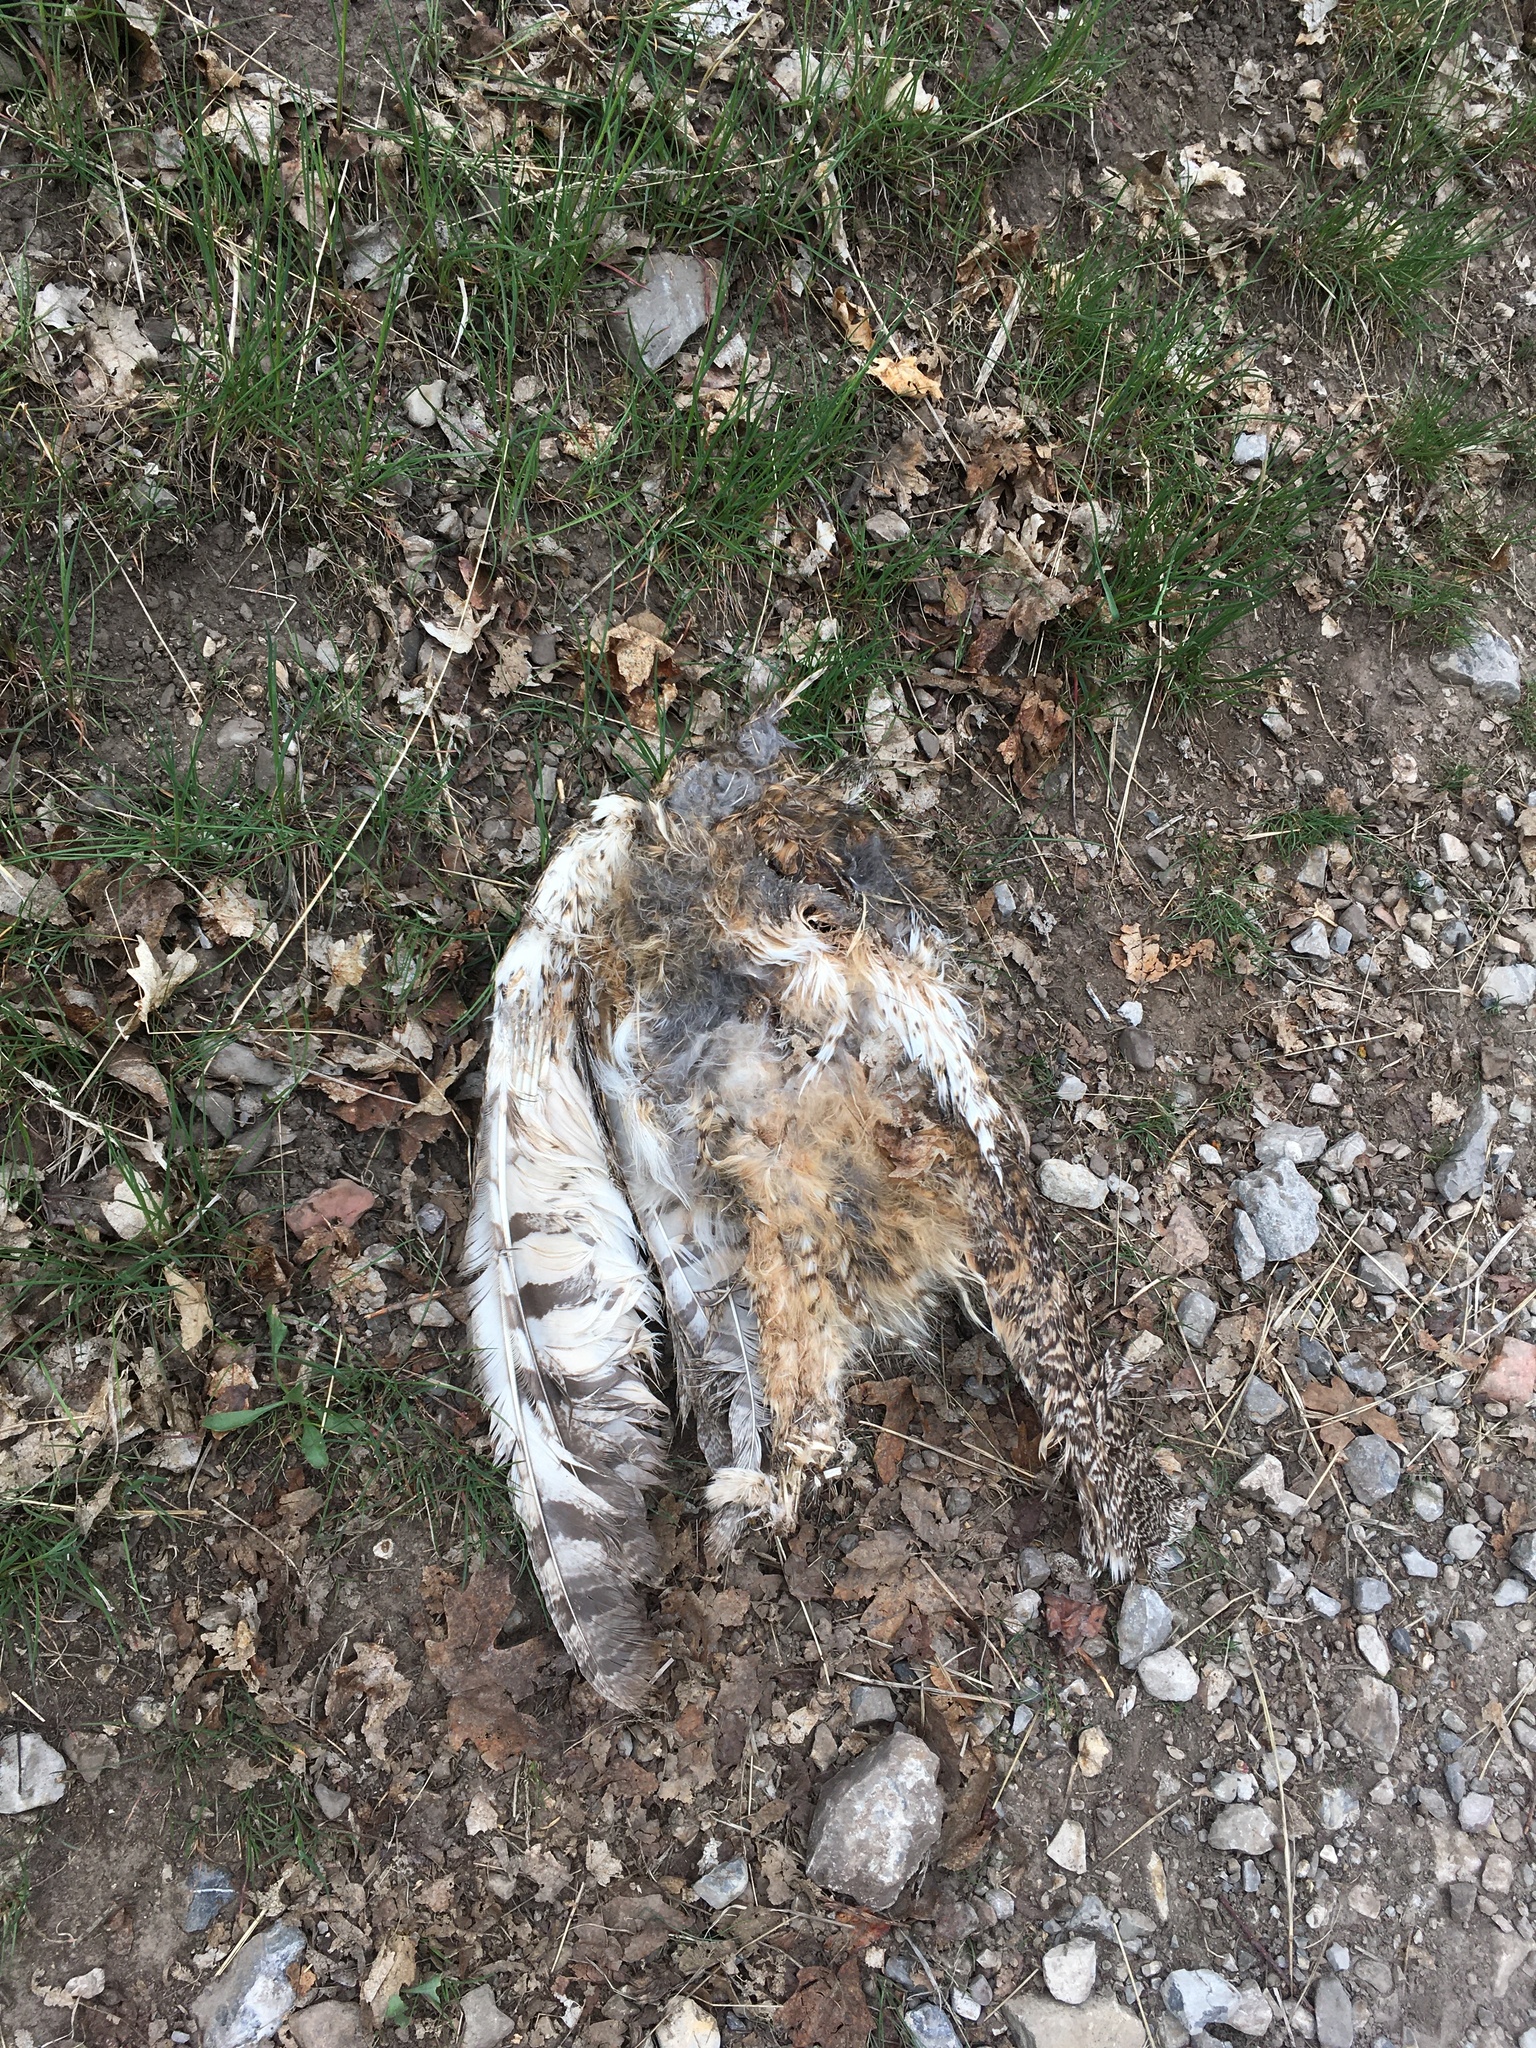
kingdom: Animalia
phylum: Chordata
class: Aves
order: Strigiformes
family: Strigidae
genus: Bubo
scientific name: Bubo virginianus
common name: Great horned owl
